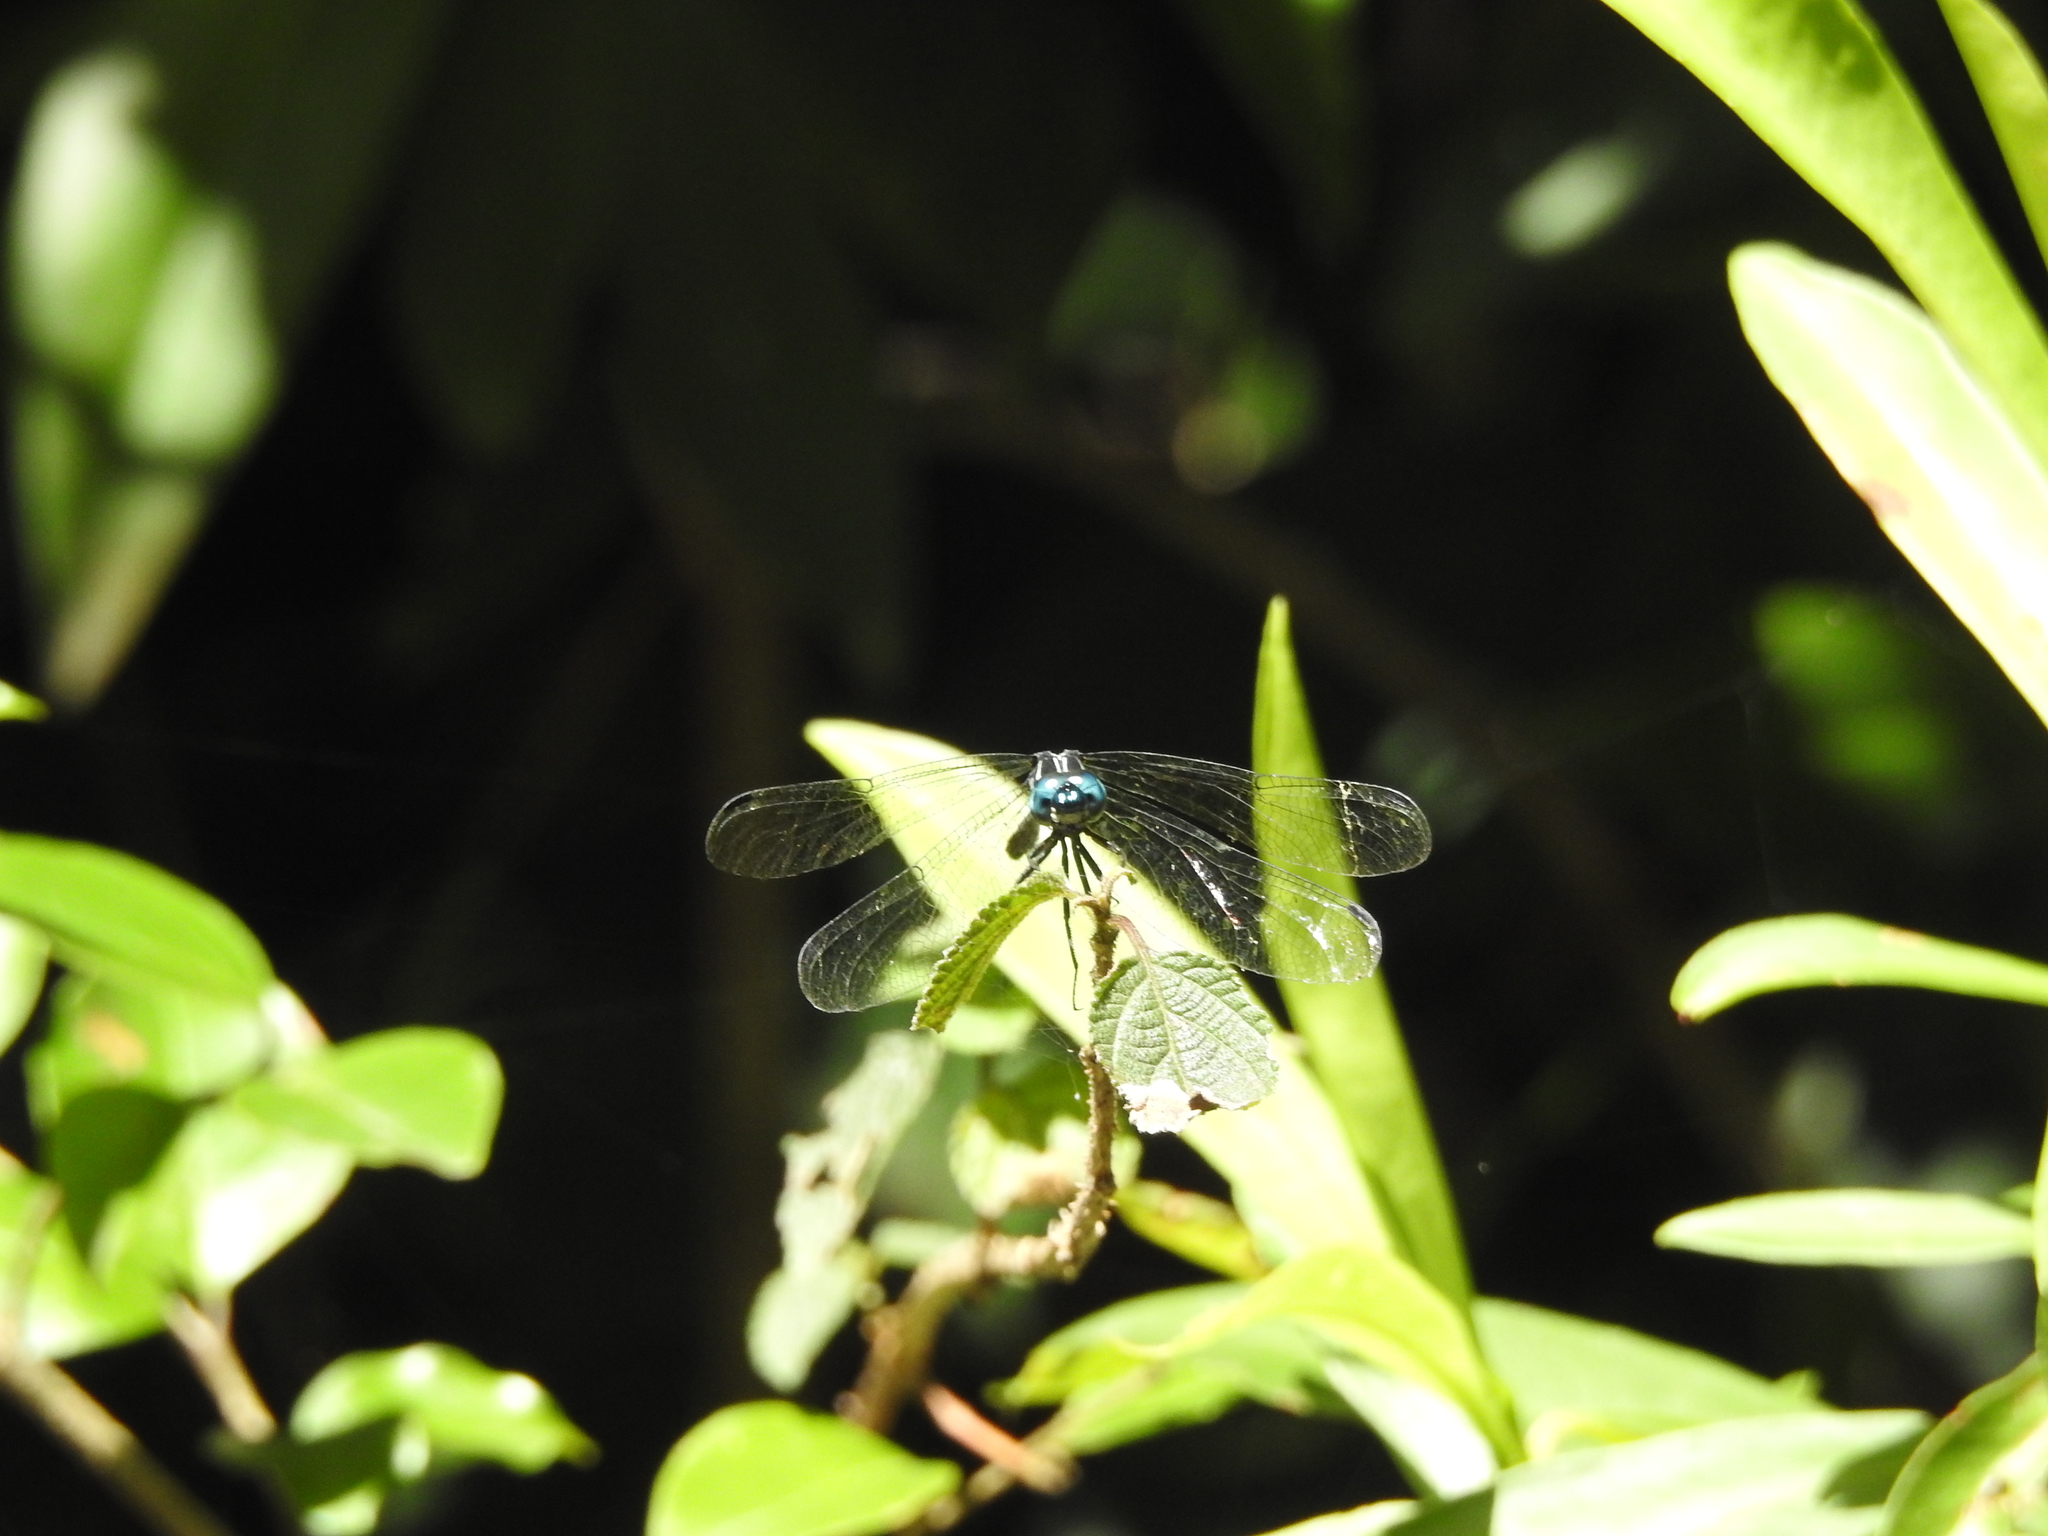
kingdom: Animalia
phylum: Arthropoda
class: Insecta
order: Odonata
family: Libellulidae
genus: Hylaeothemis
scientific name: Hylaeothemis apicalis
